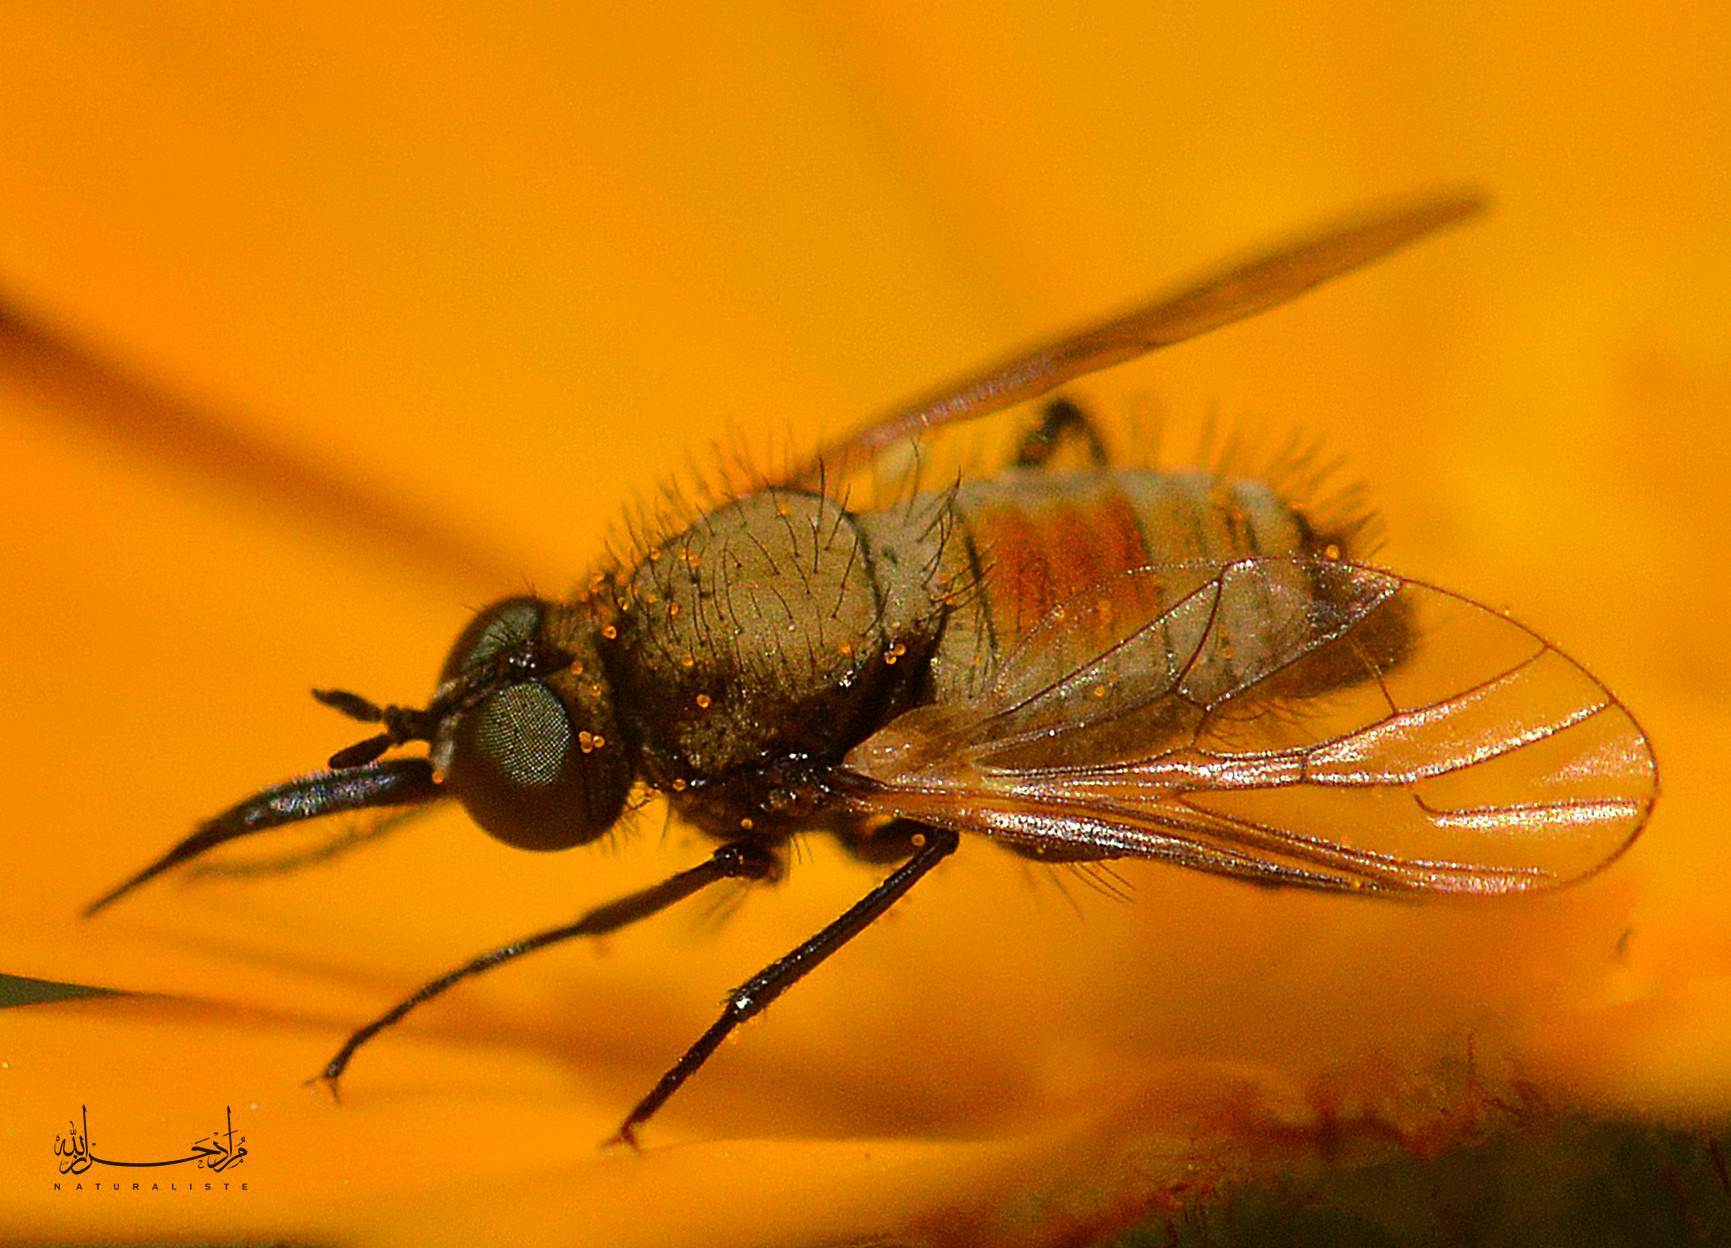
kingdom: Animalia
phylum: Arthropoda
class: Insecta
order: Diptera
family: Bombyliidae
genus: Usia
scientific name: Usia versicolor
